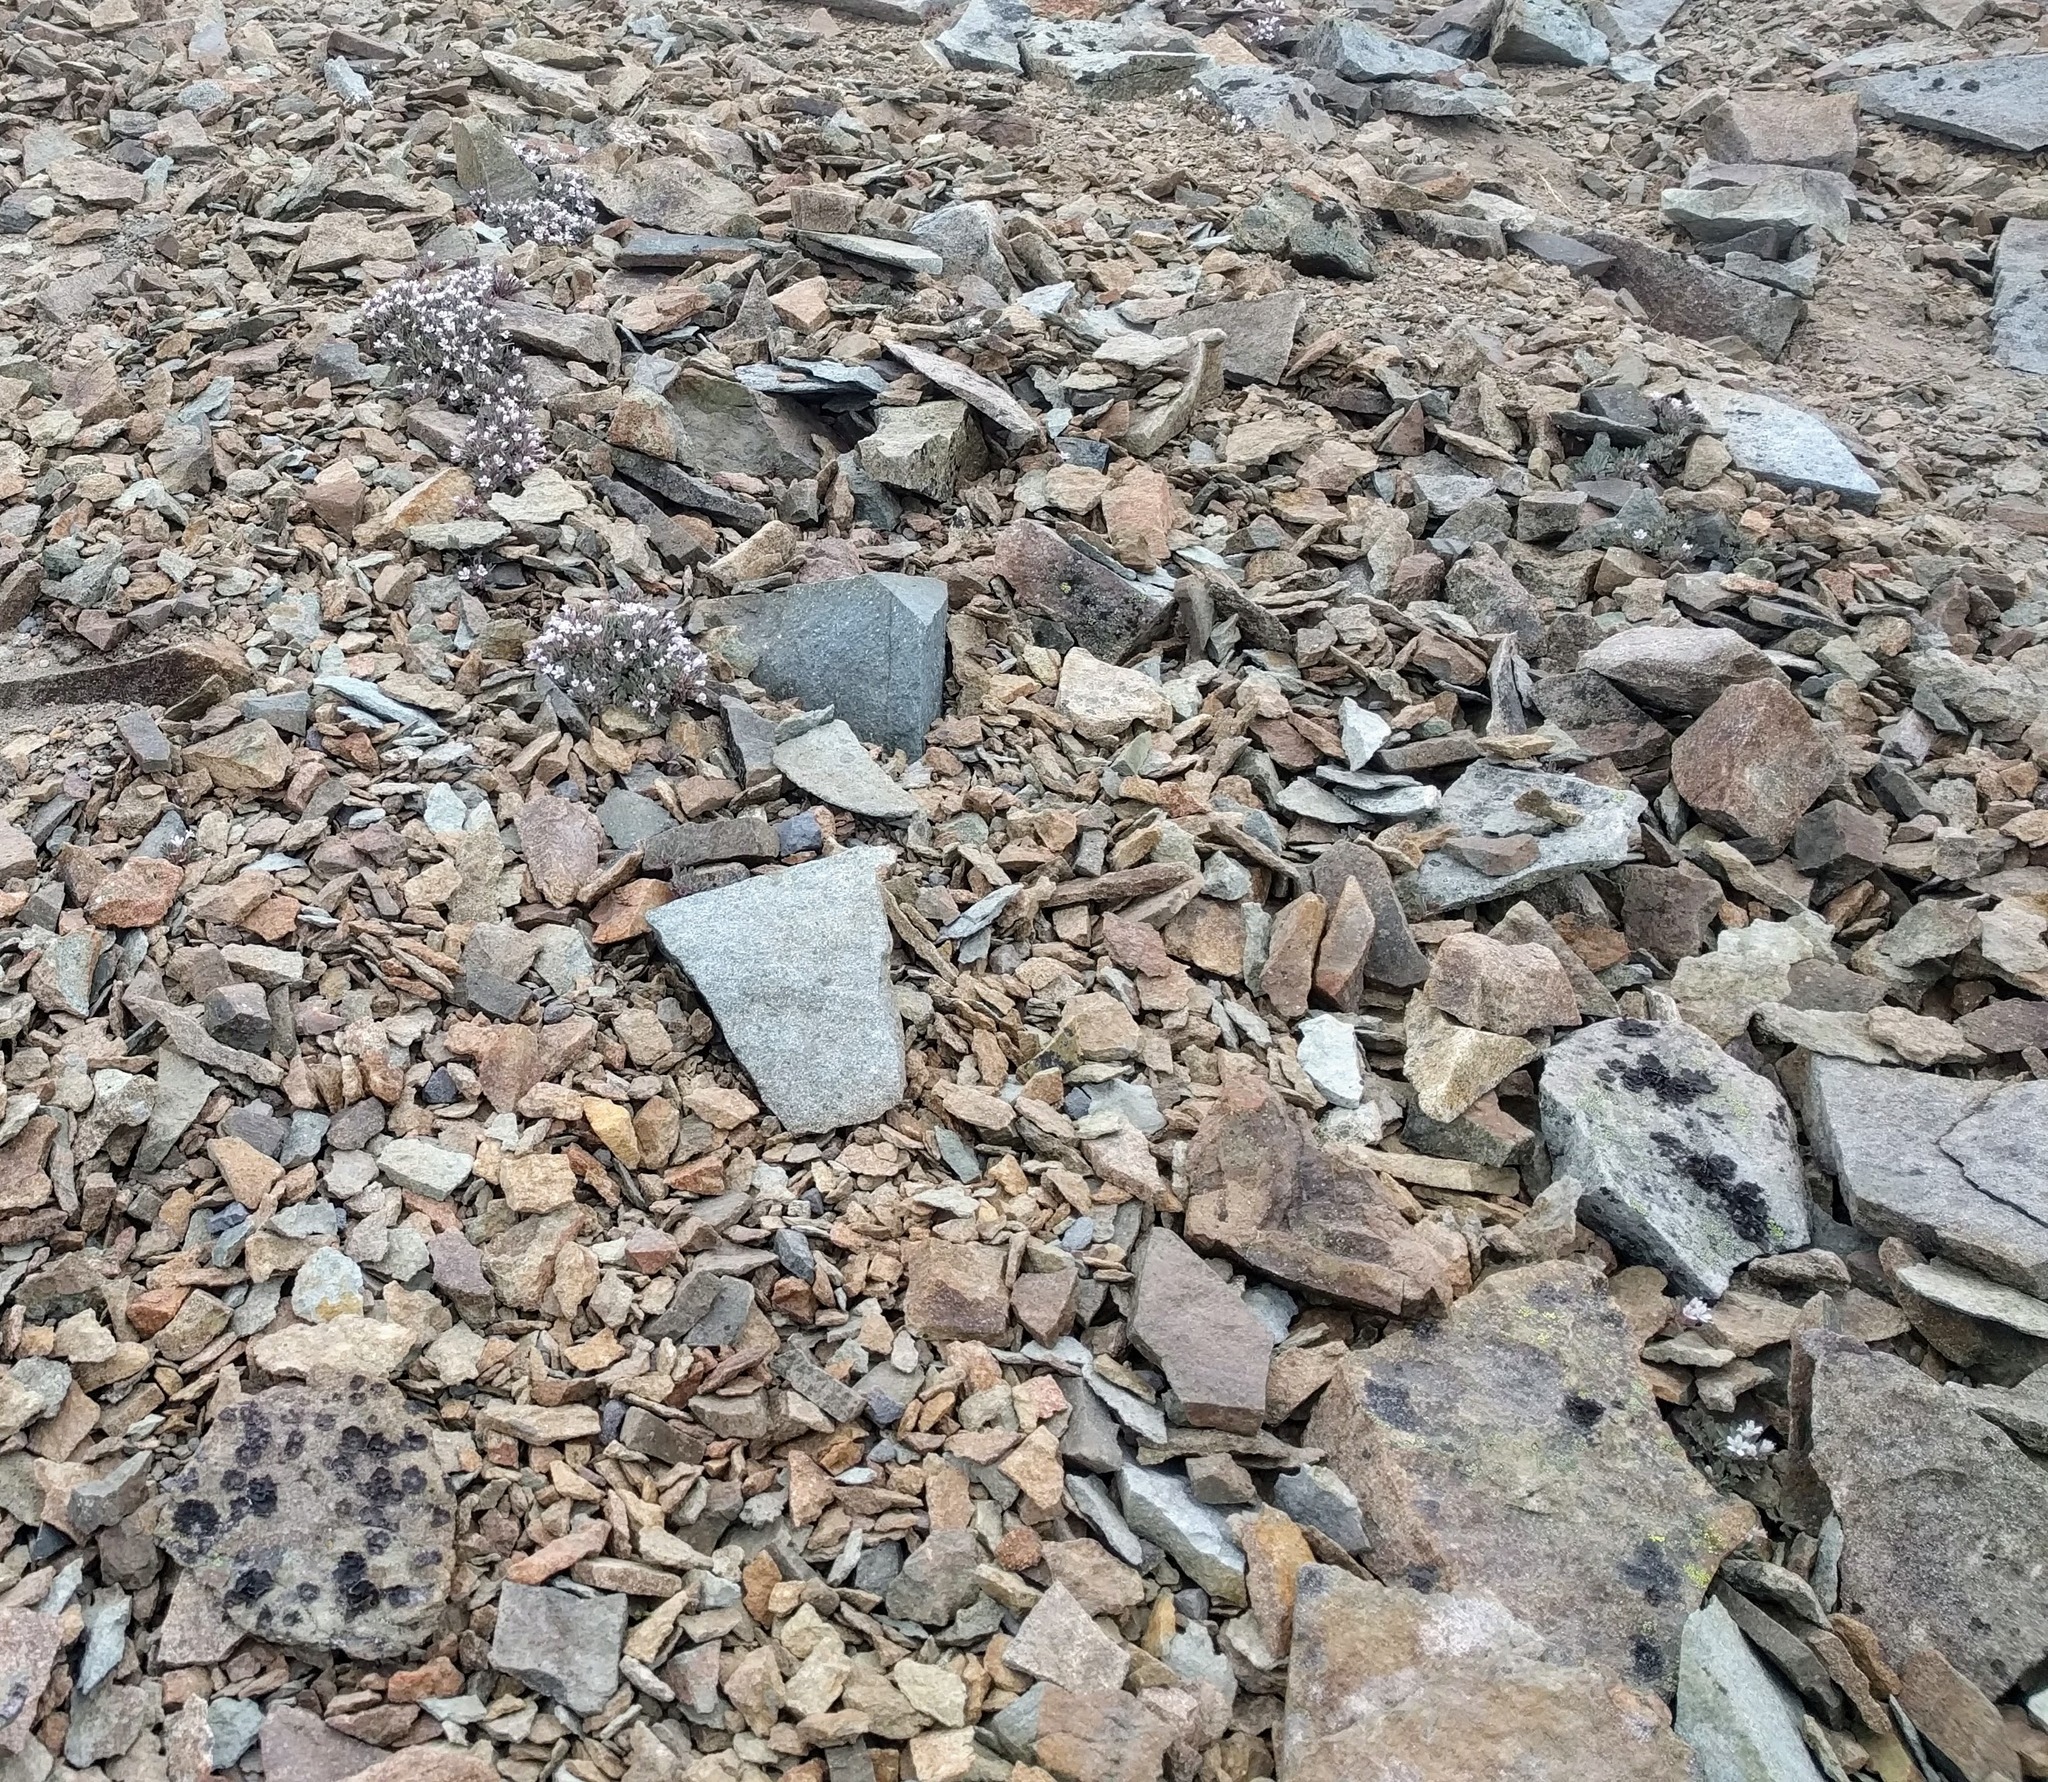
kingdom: Plantae
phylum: Tracheophyta
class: Magnoliopsida
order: Ericales
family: Polemoniaceae
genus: Collomia
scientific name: Collomia larsenii
